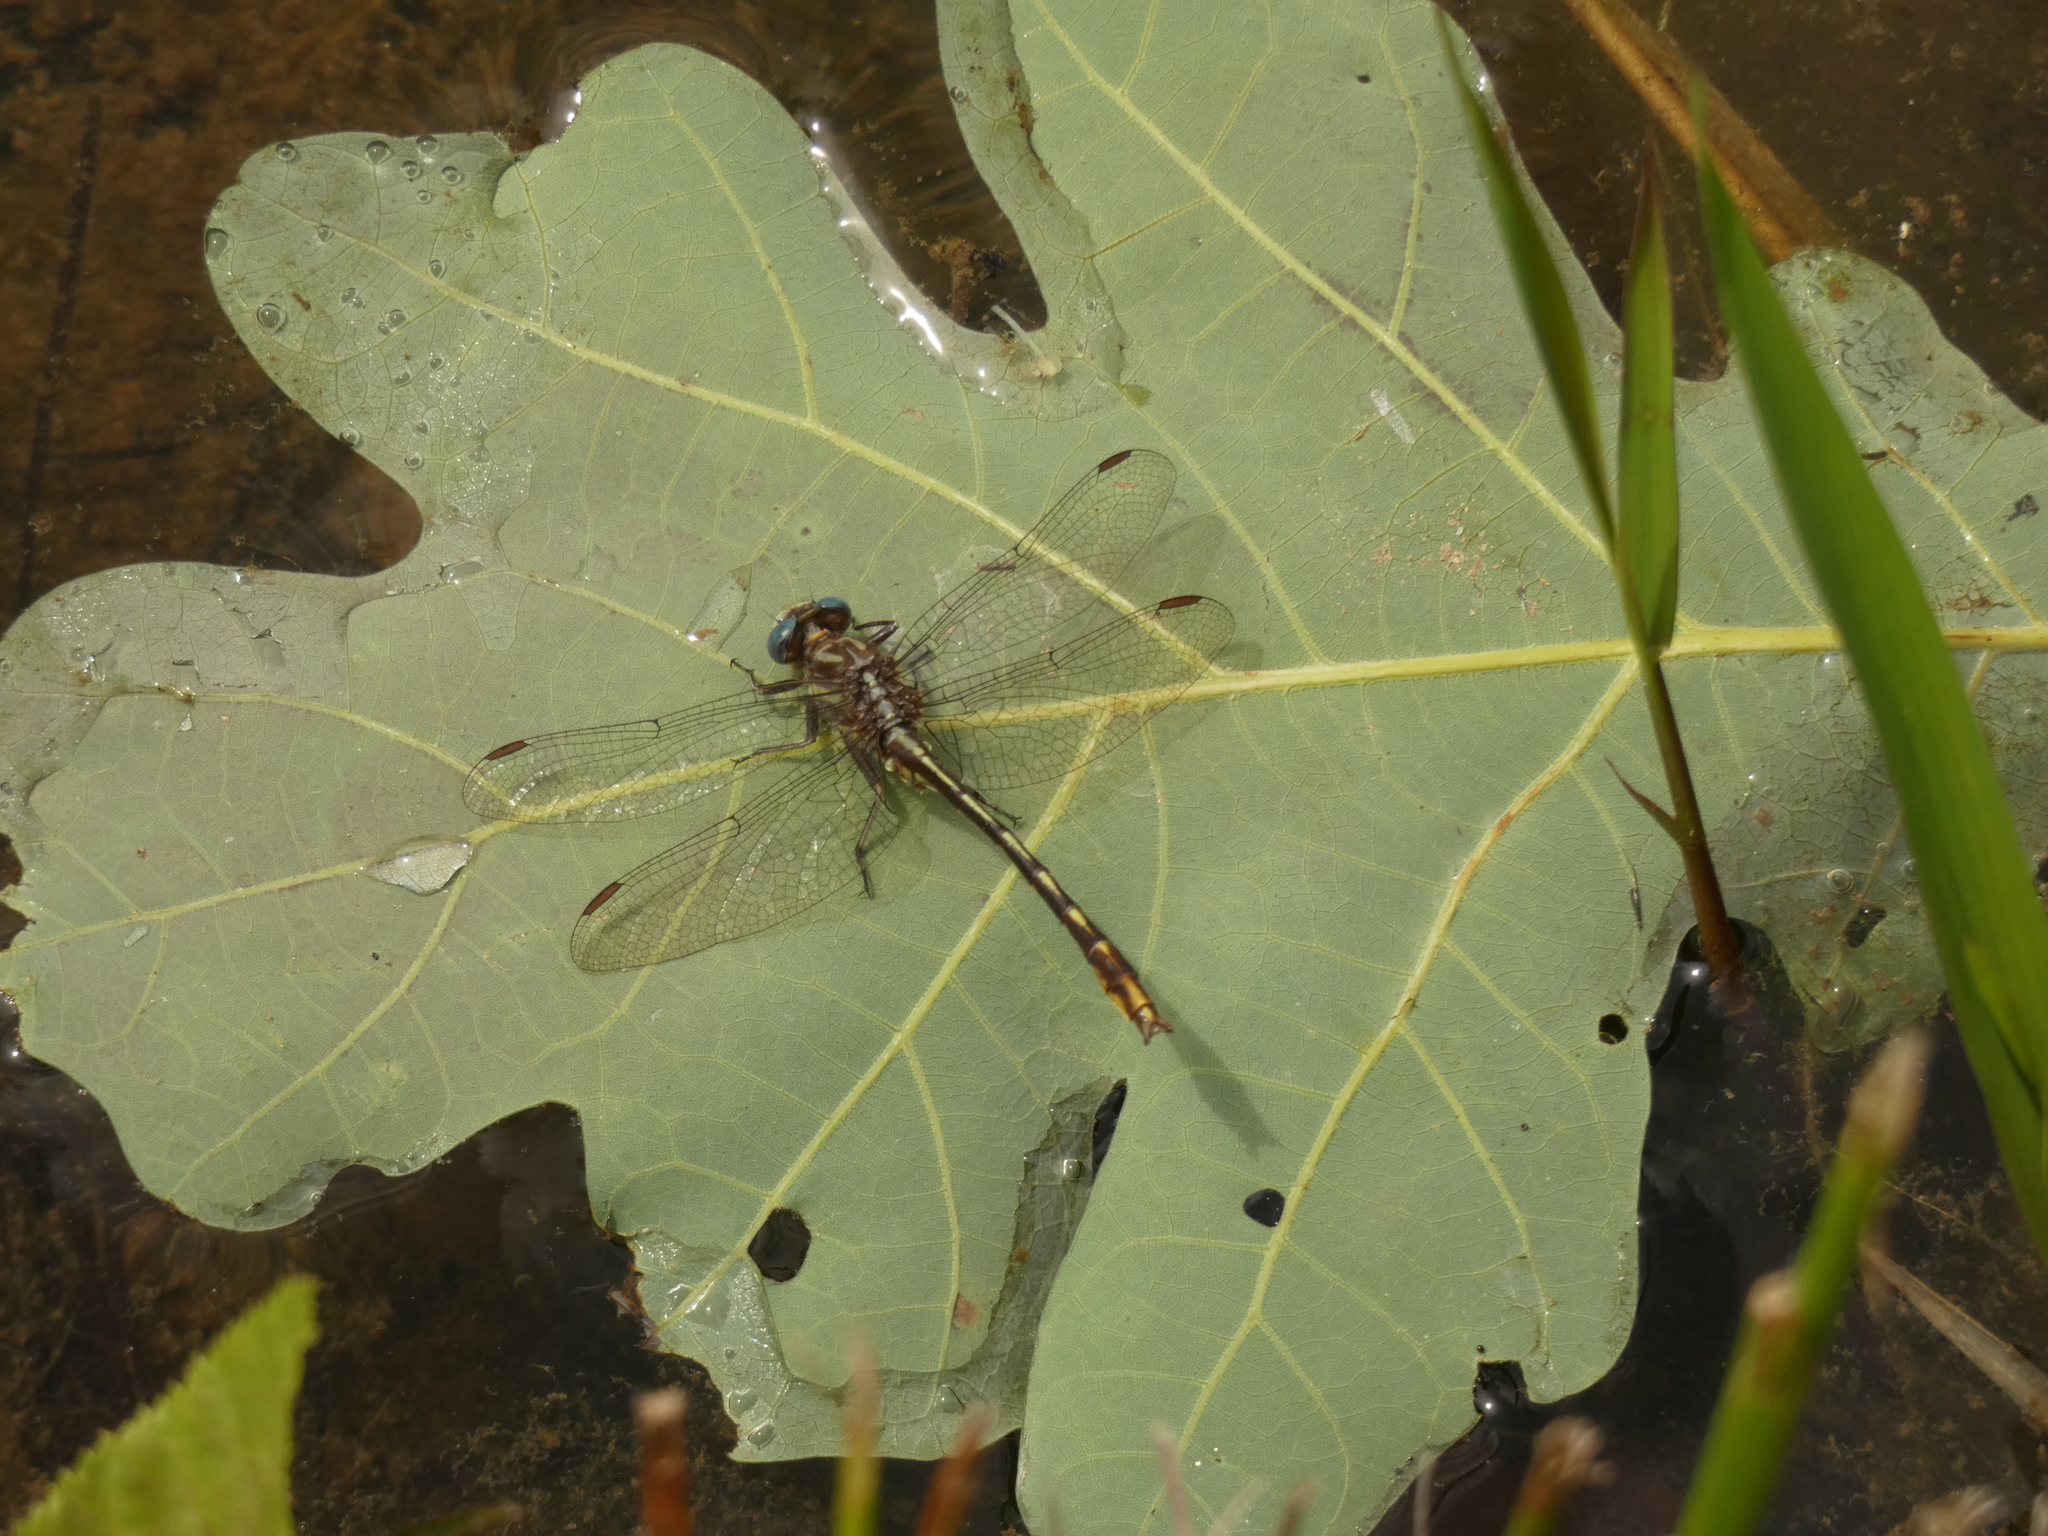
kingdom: Animalia
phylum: Arthropoda
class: Insecta
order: Odonata
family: Gomphidae
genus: Phanogomphus
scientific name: Phanogomphus exilis
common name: Lancet clubtail
